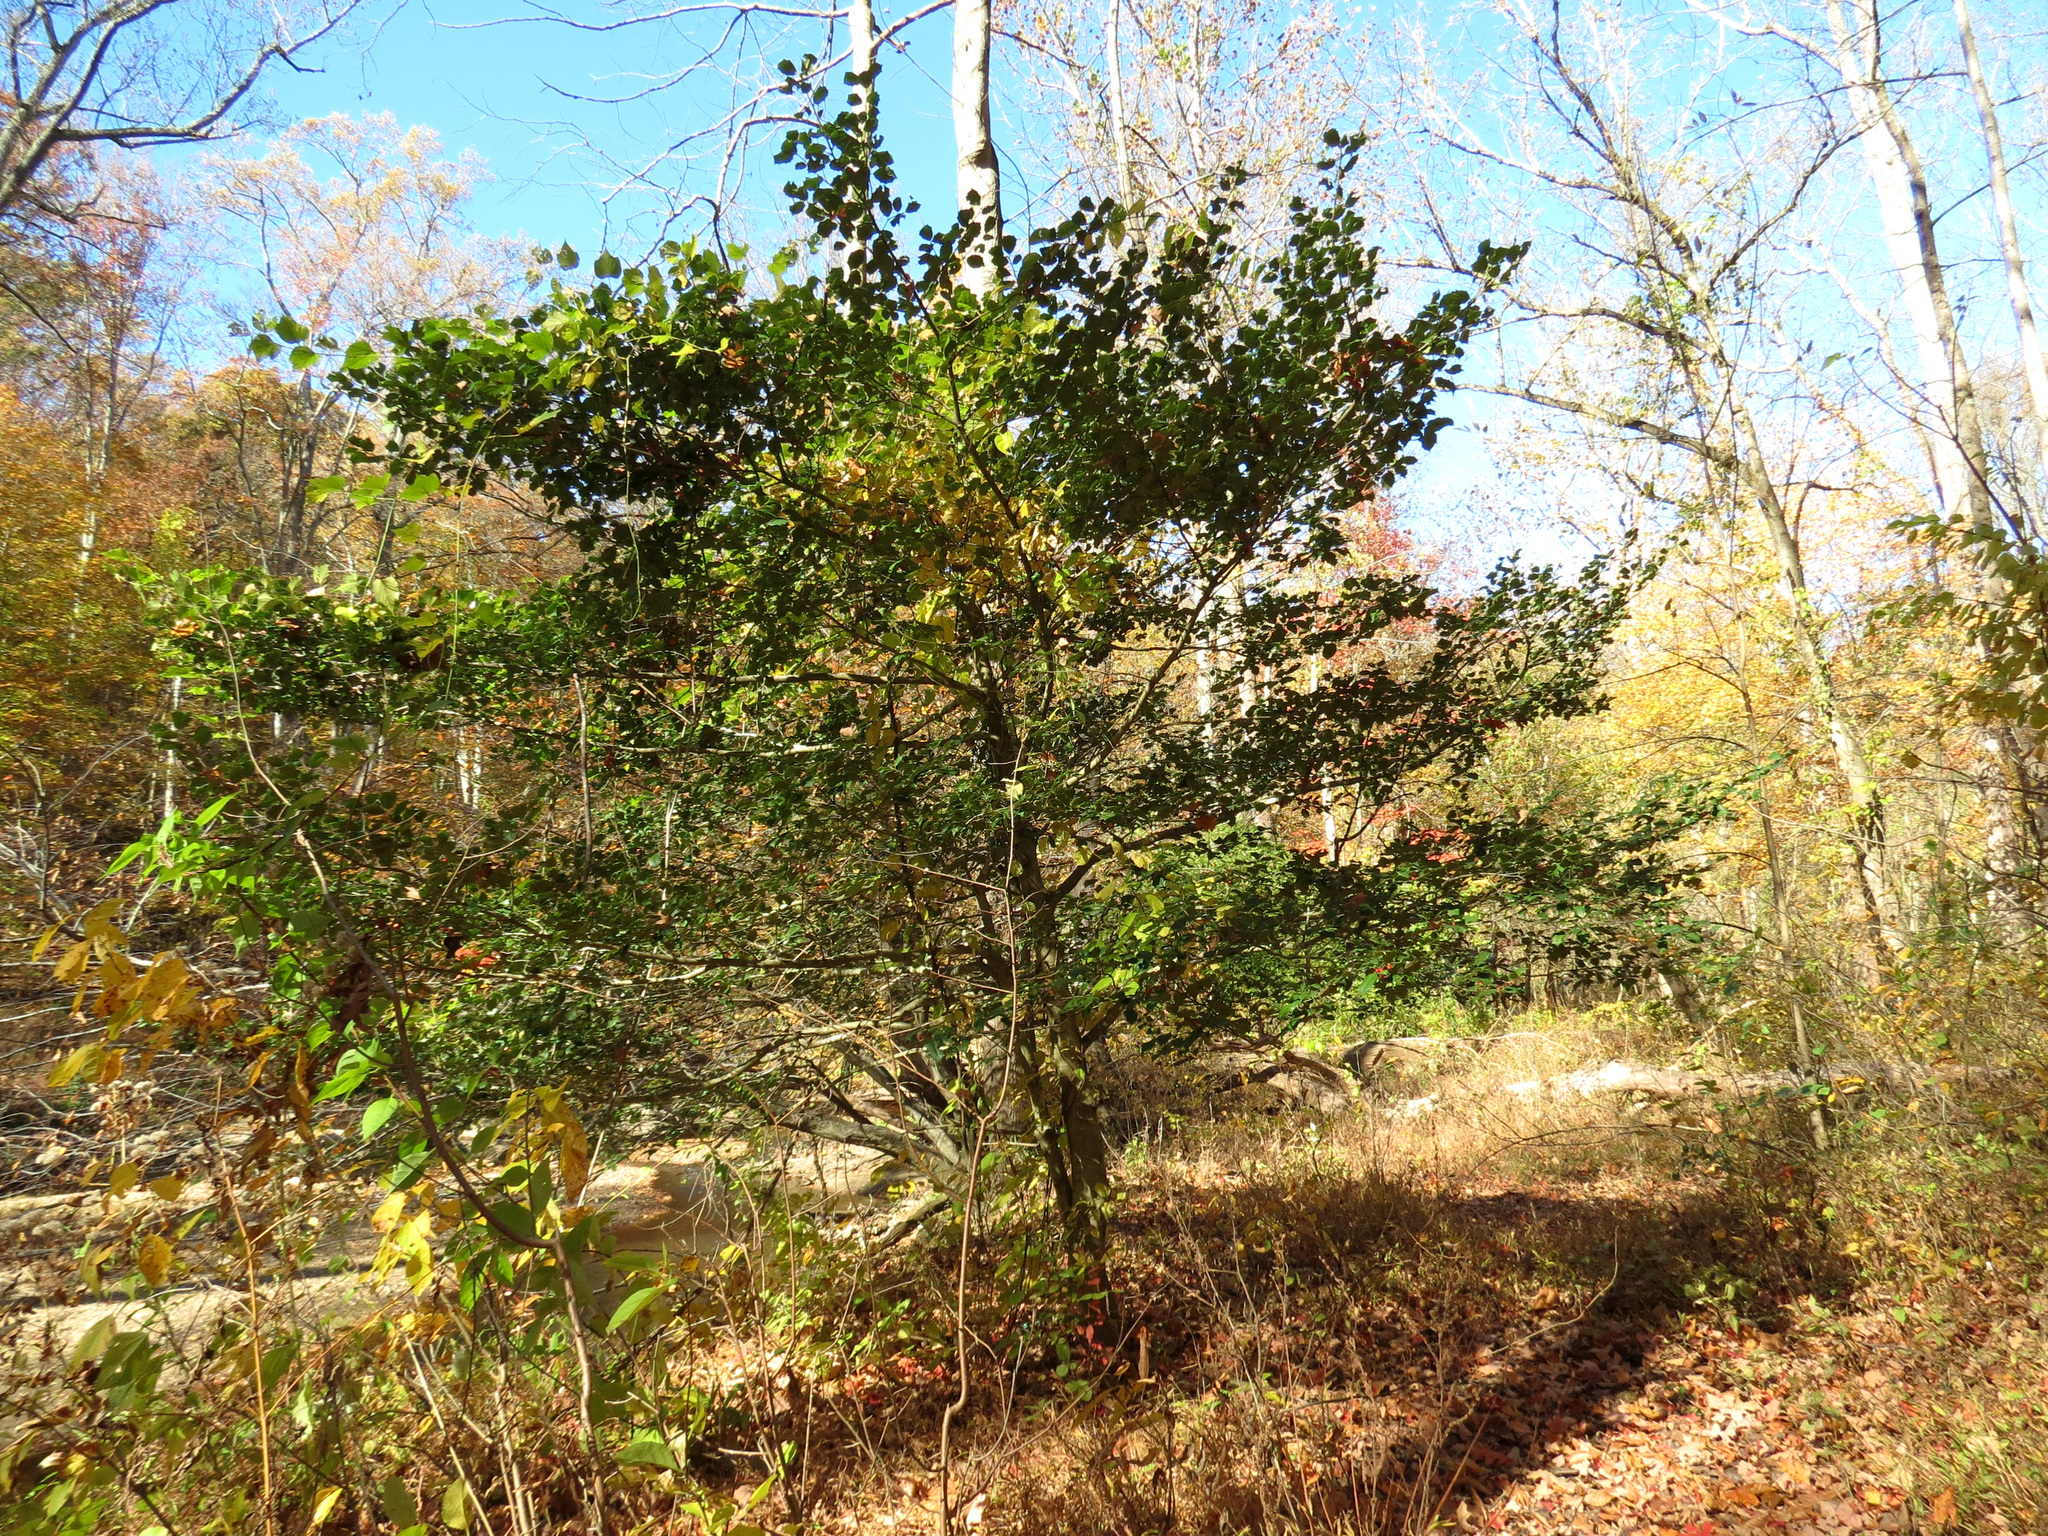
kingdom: Plantae
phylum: Tracheophyta
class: Magnoliopsida
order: Aquifoliales
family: Aquifoliaceae
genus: Ilex
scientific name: Ilex opaca
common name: American holly
